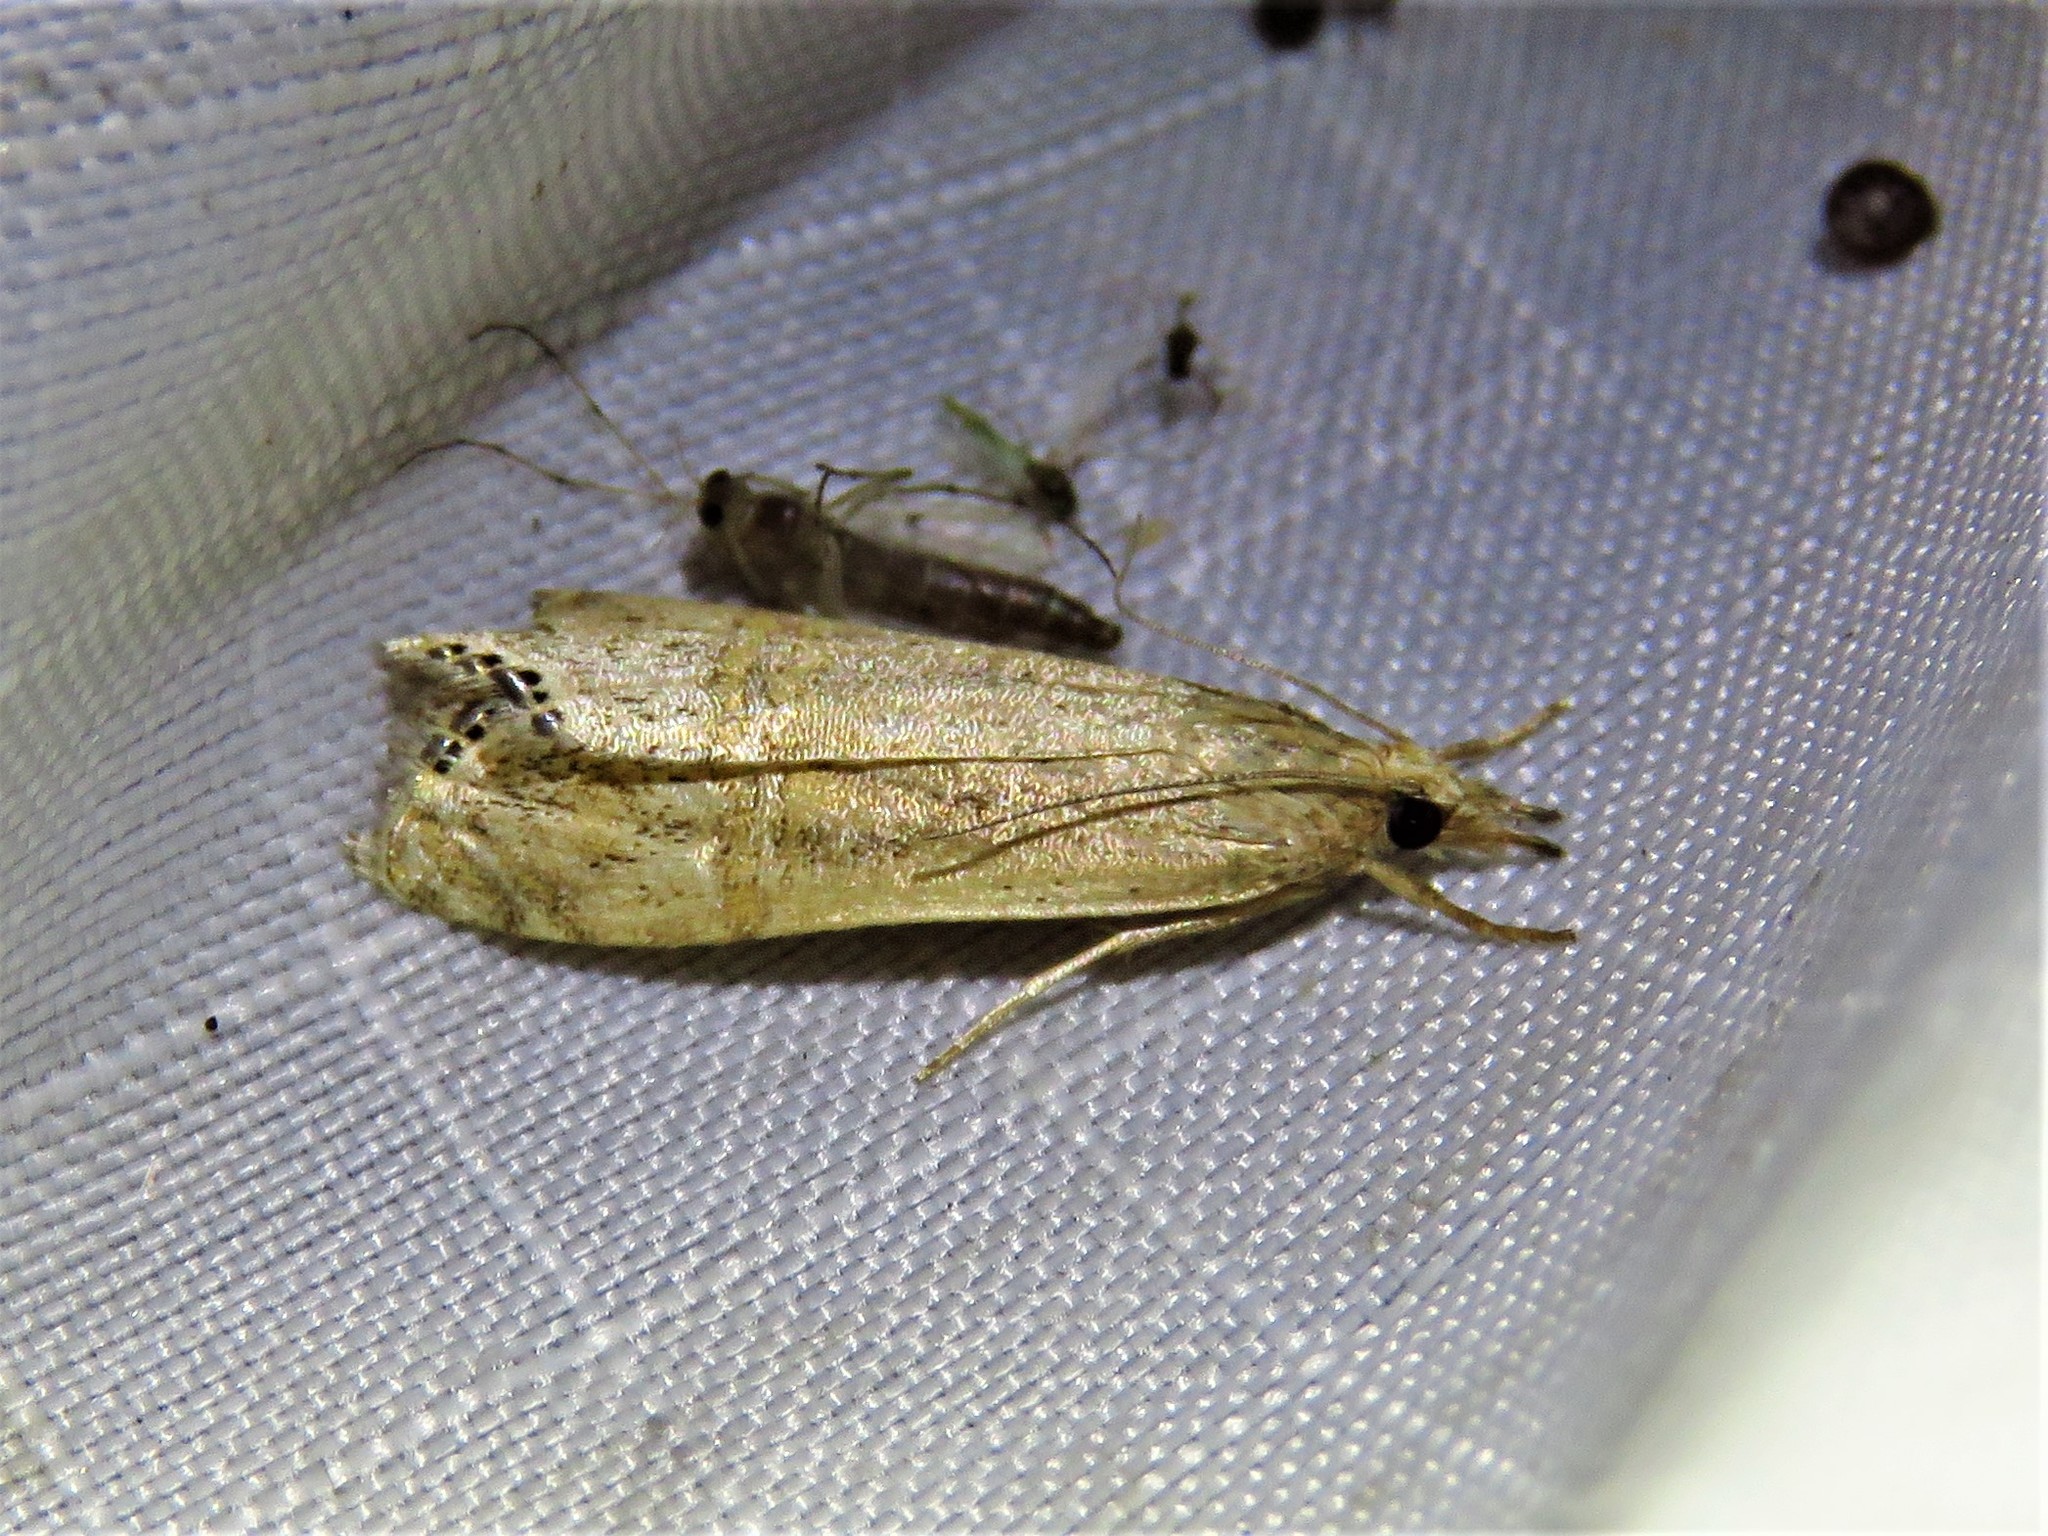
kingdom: Animalia
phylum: Arthropoda
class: Insecta
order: Lepidoptera
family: Crambidae
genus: Euchromius
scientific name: Euchromius ocellea
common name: Necklace veneer moth
